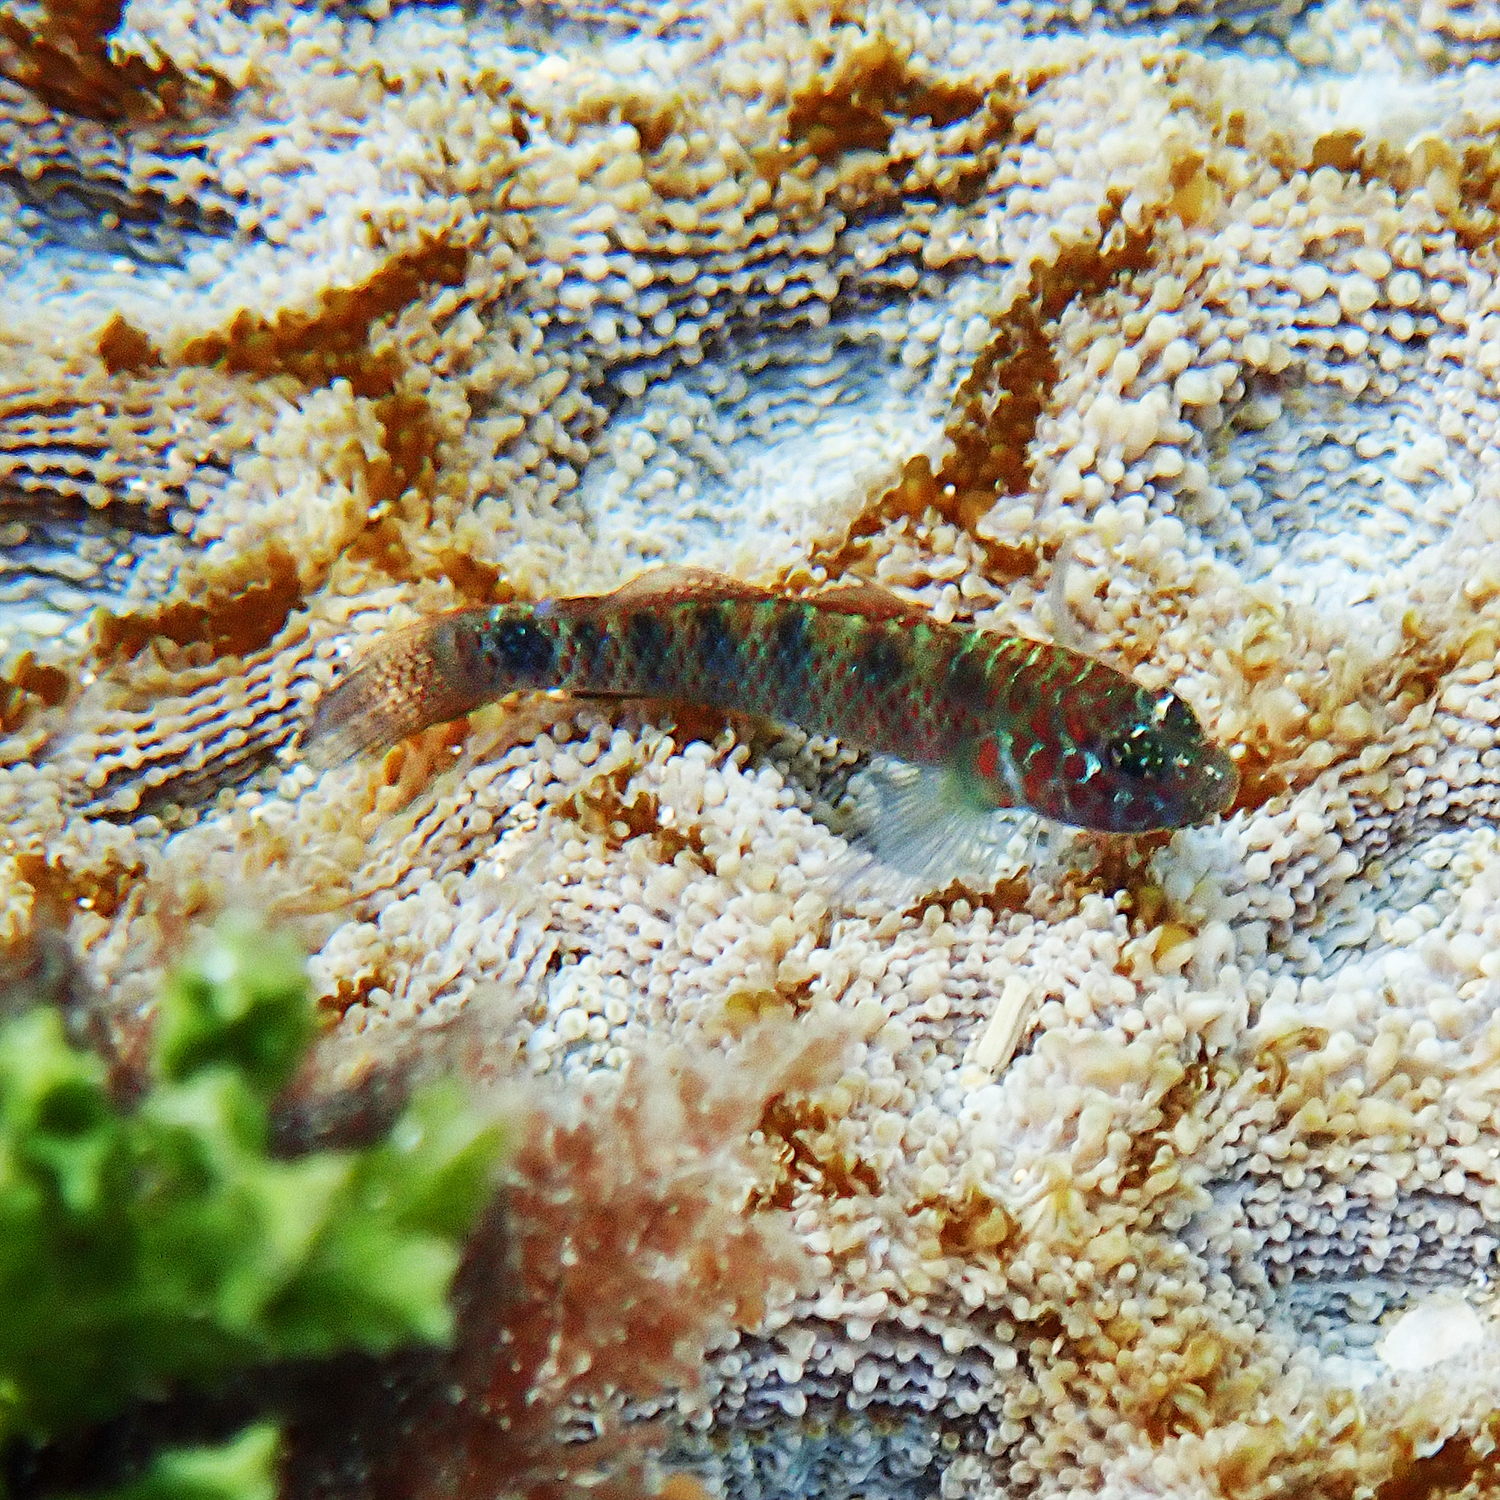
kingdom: Animalia
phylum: Chordata
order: Perciformes
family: Gobiidae
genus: Eviota
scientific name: Eviota hoesei
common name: Doug's eviota
